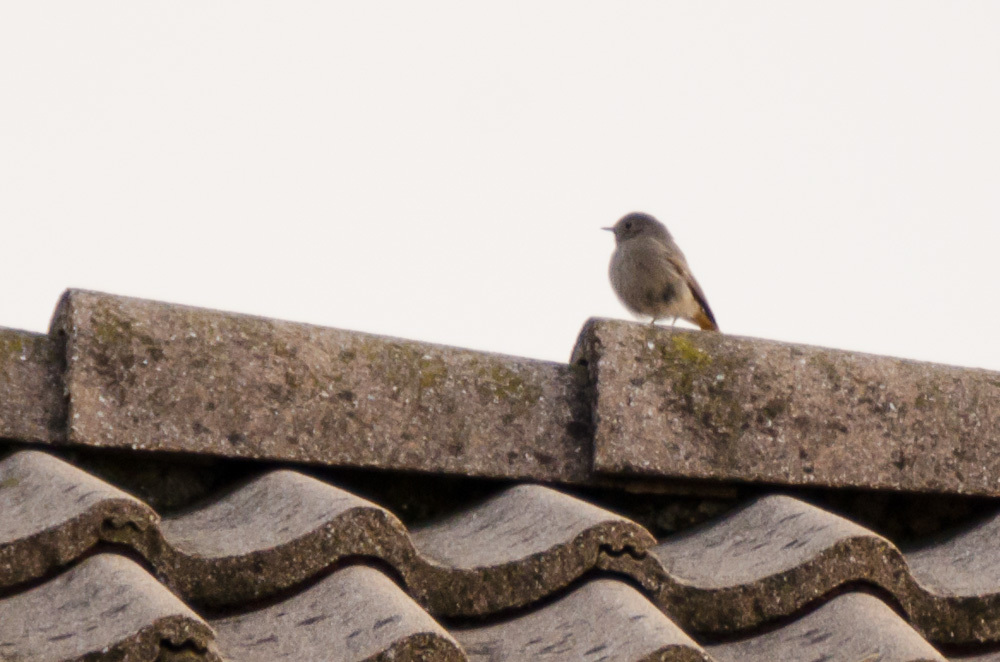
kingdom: Animalia
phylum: Chordata
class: Aves
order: Passeriformes
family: Muscicapidae
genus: Phoenicurus
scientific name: Phoenicurus ochruros
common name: Black redstart
